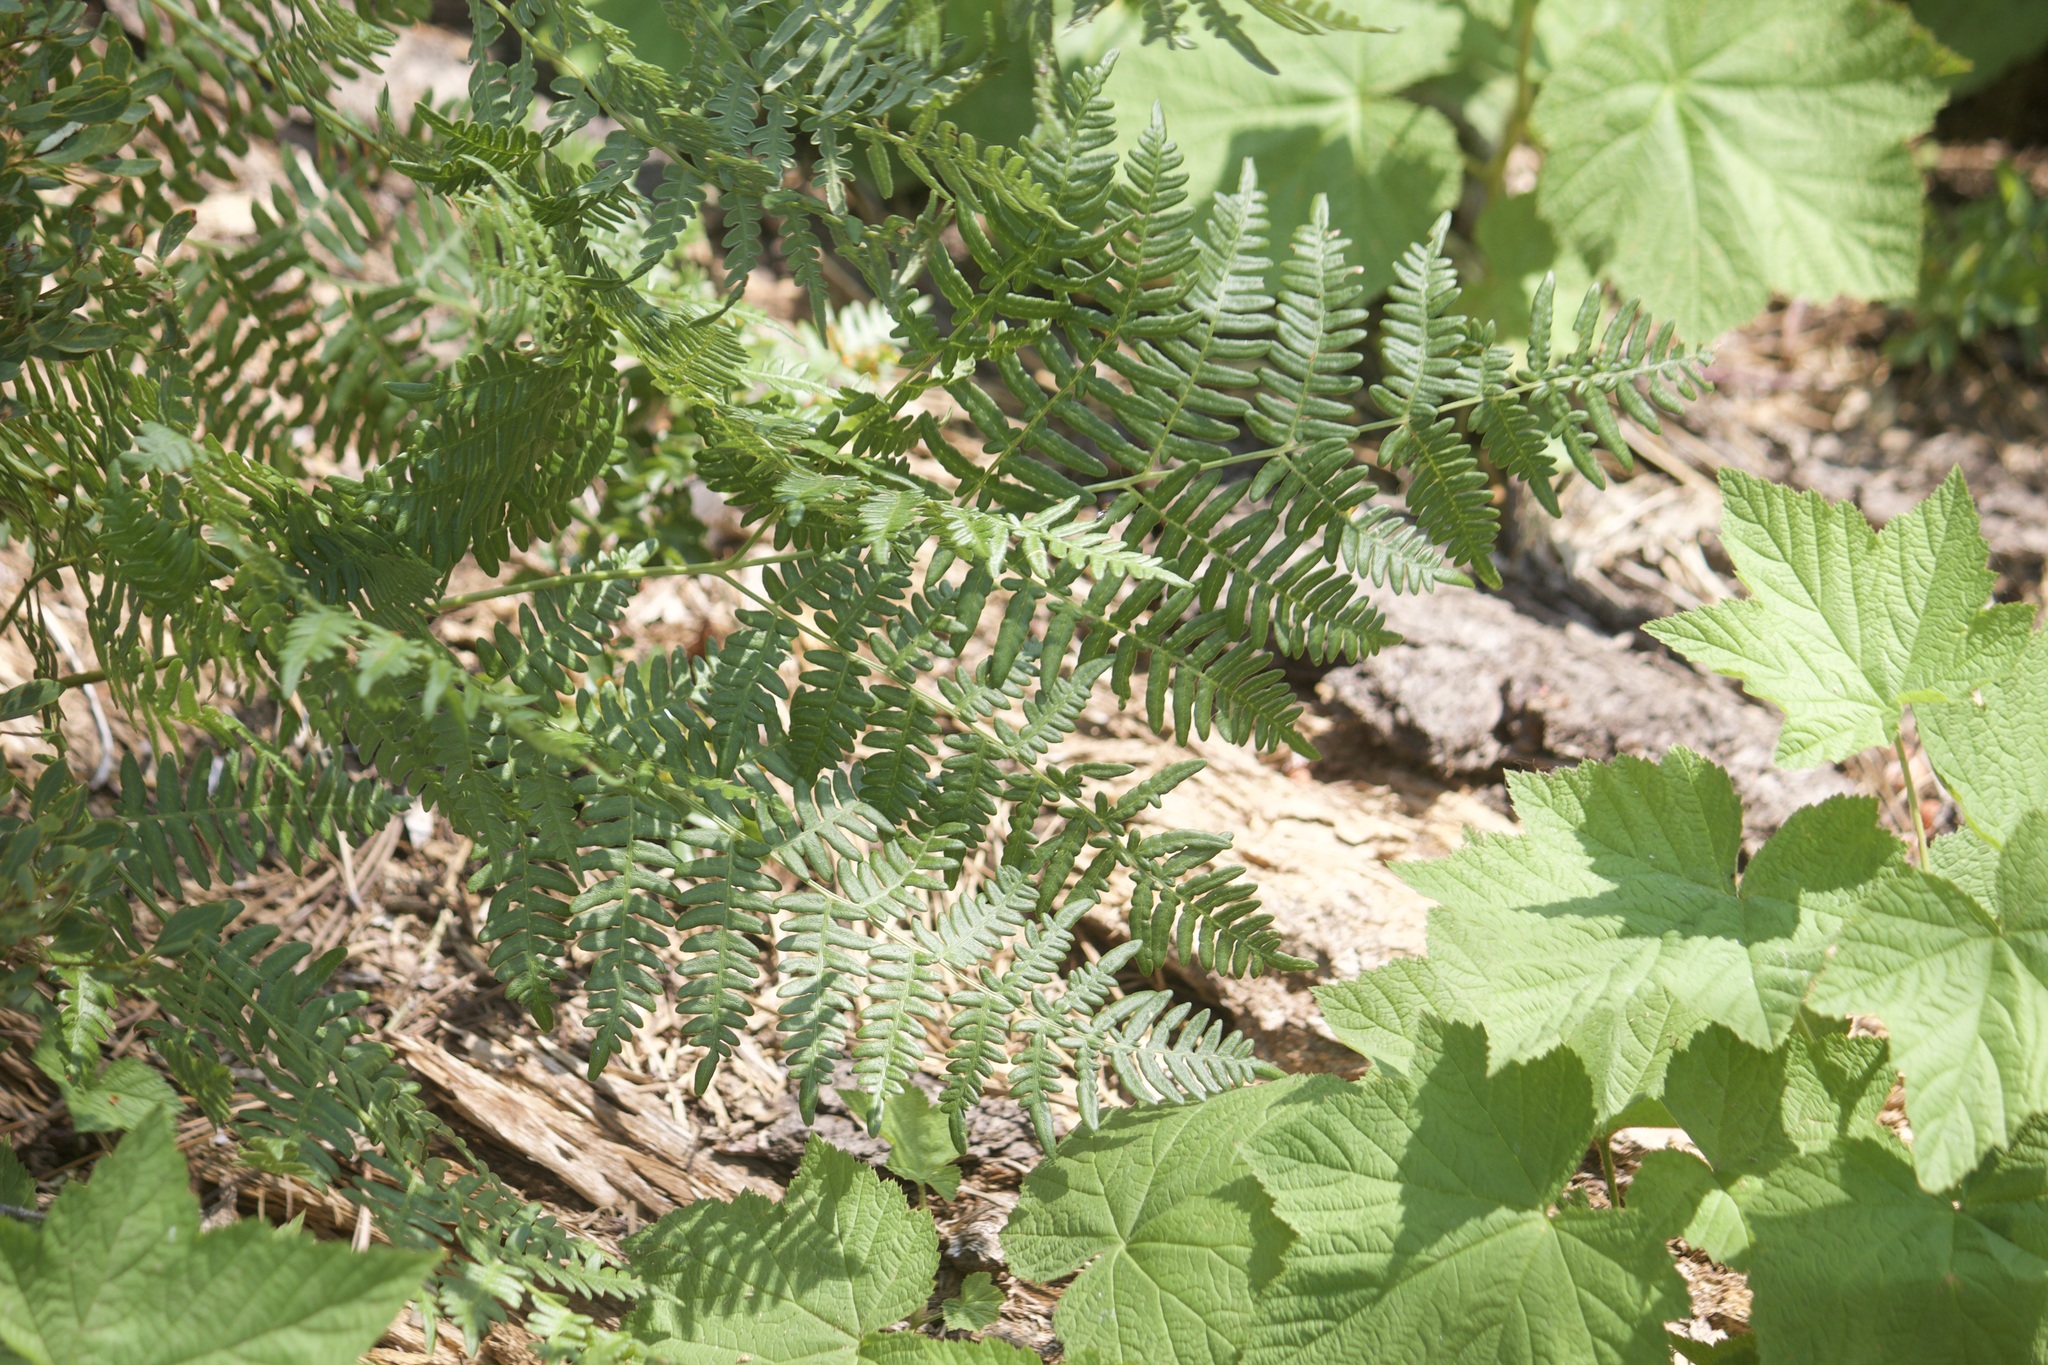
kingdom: Plantae
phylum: Tracheophyta
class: Polypodiopsida
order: Polypodiales
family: Dennstaedtiaceae
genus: Pteridium
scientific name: Pteridium aquilinum
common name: Bracken
